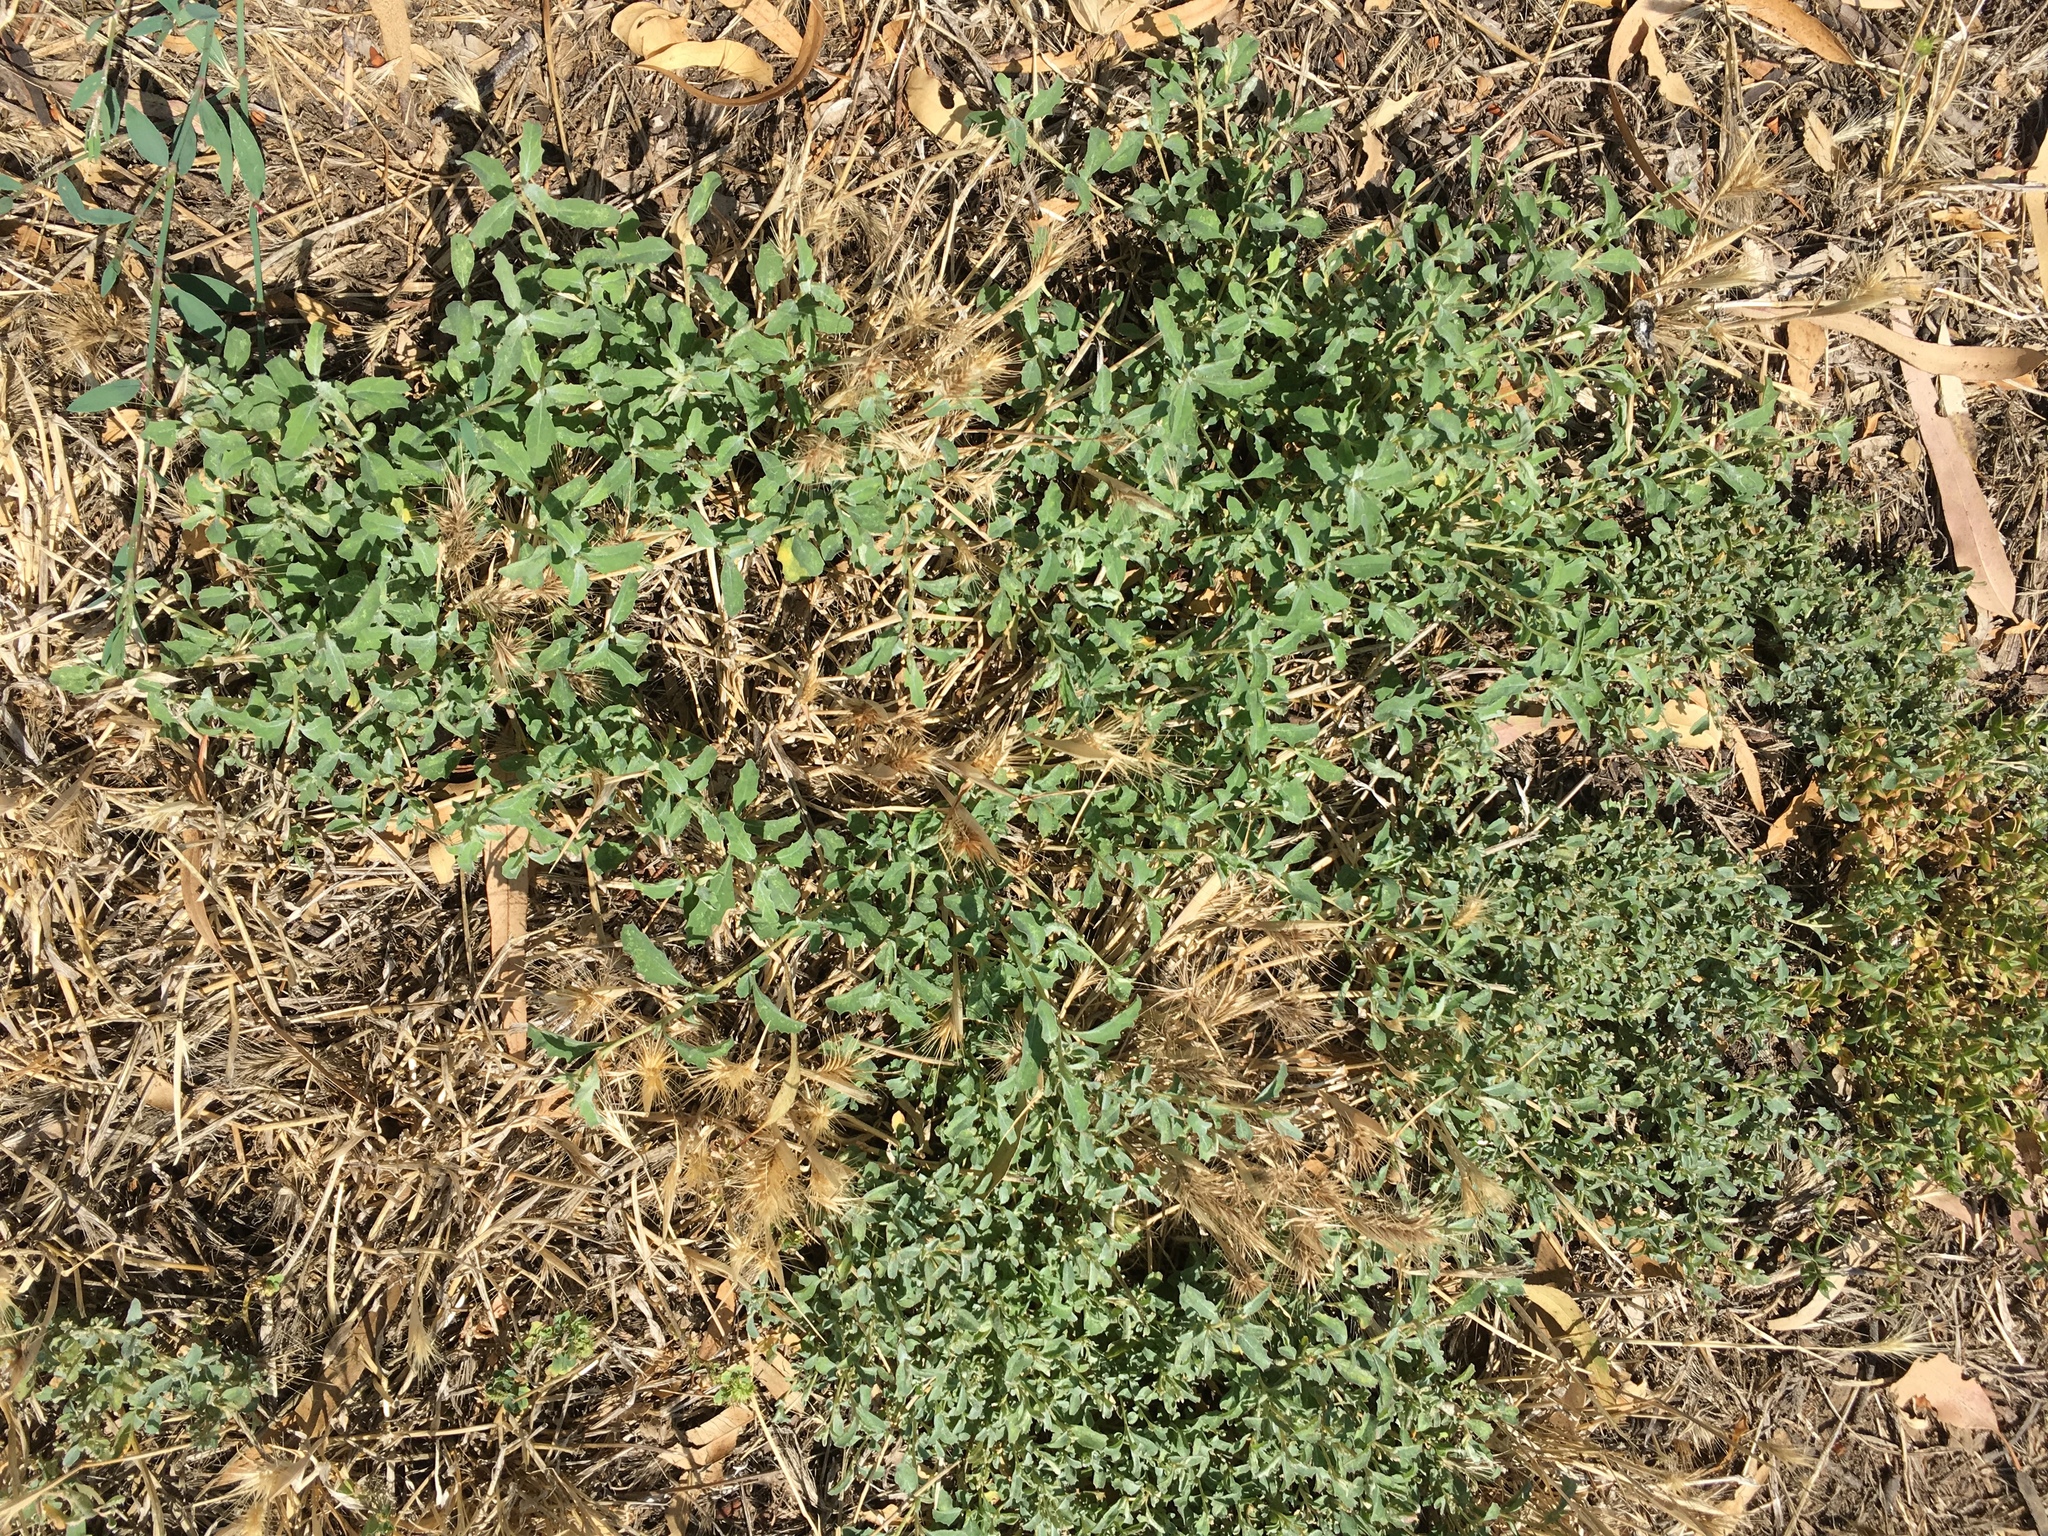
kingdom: Plantae
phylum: Tracheophyta
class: Magnoliopsida
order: Caryophyllales
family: Amaranthaceae
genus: Atriplex
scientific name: Atriplex semibaccata
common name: Australian saltbush
